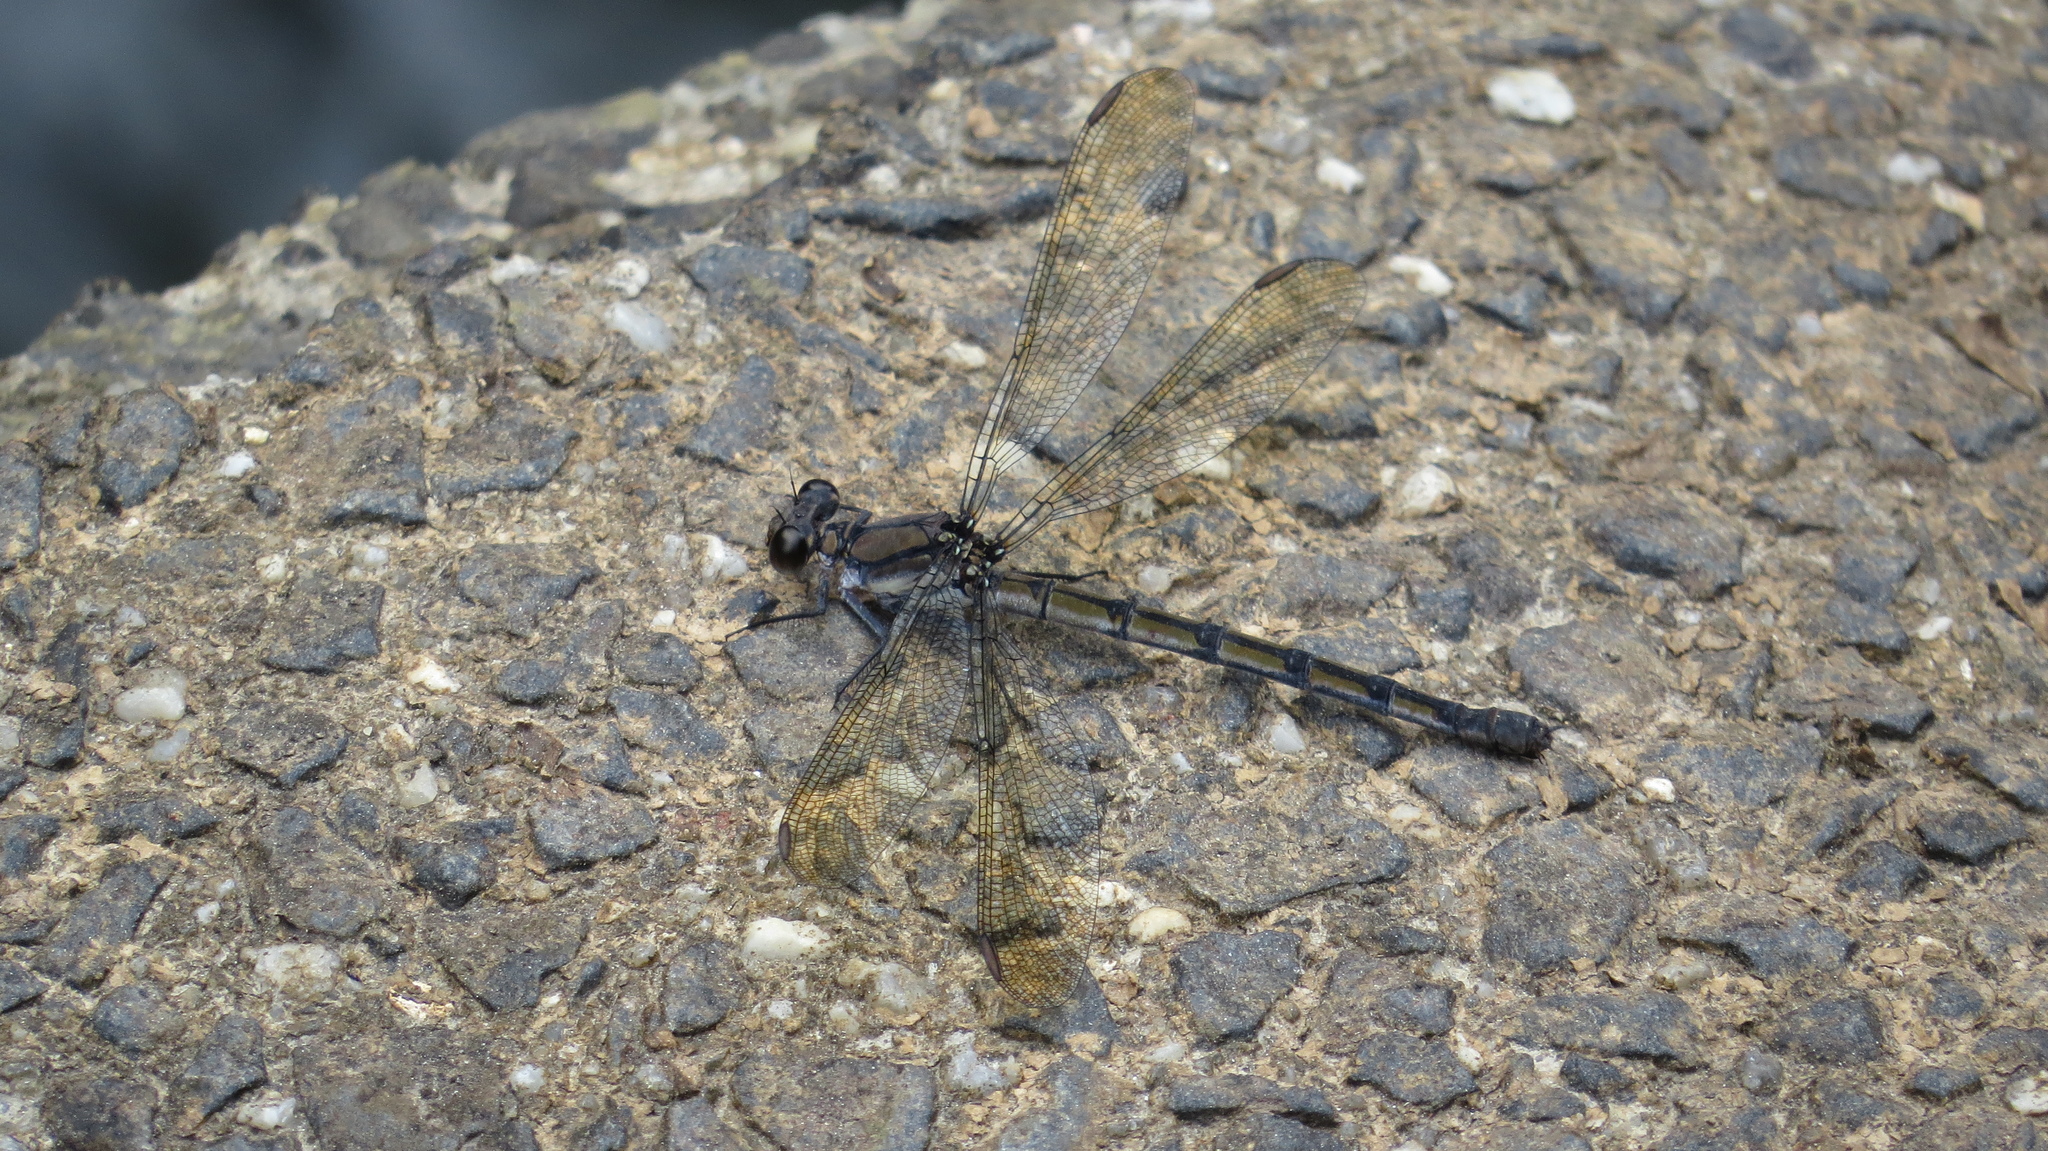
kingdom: Animalia
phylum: Arthropoda
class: Insecta
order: Odonata
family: Lestoideidae
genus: Diphlebia
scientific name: Diphlebia coerulescens
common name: Sapphire rockmaster
